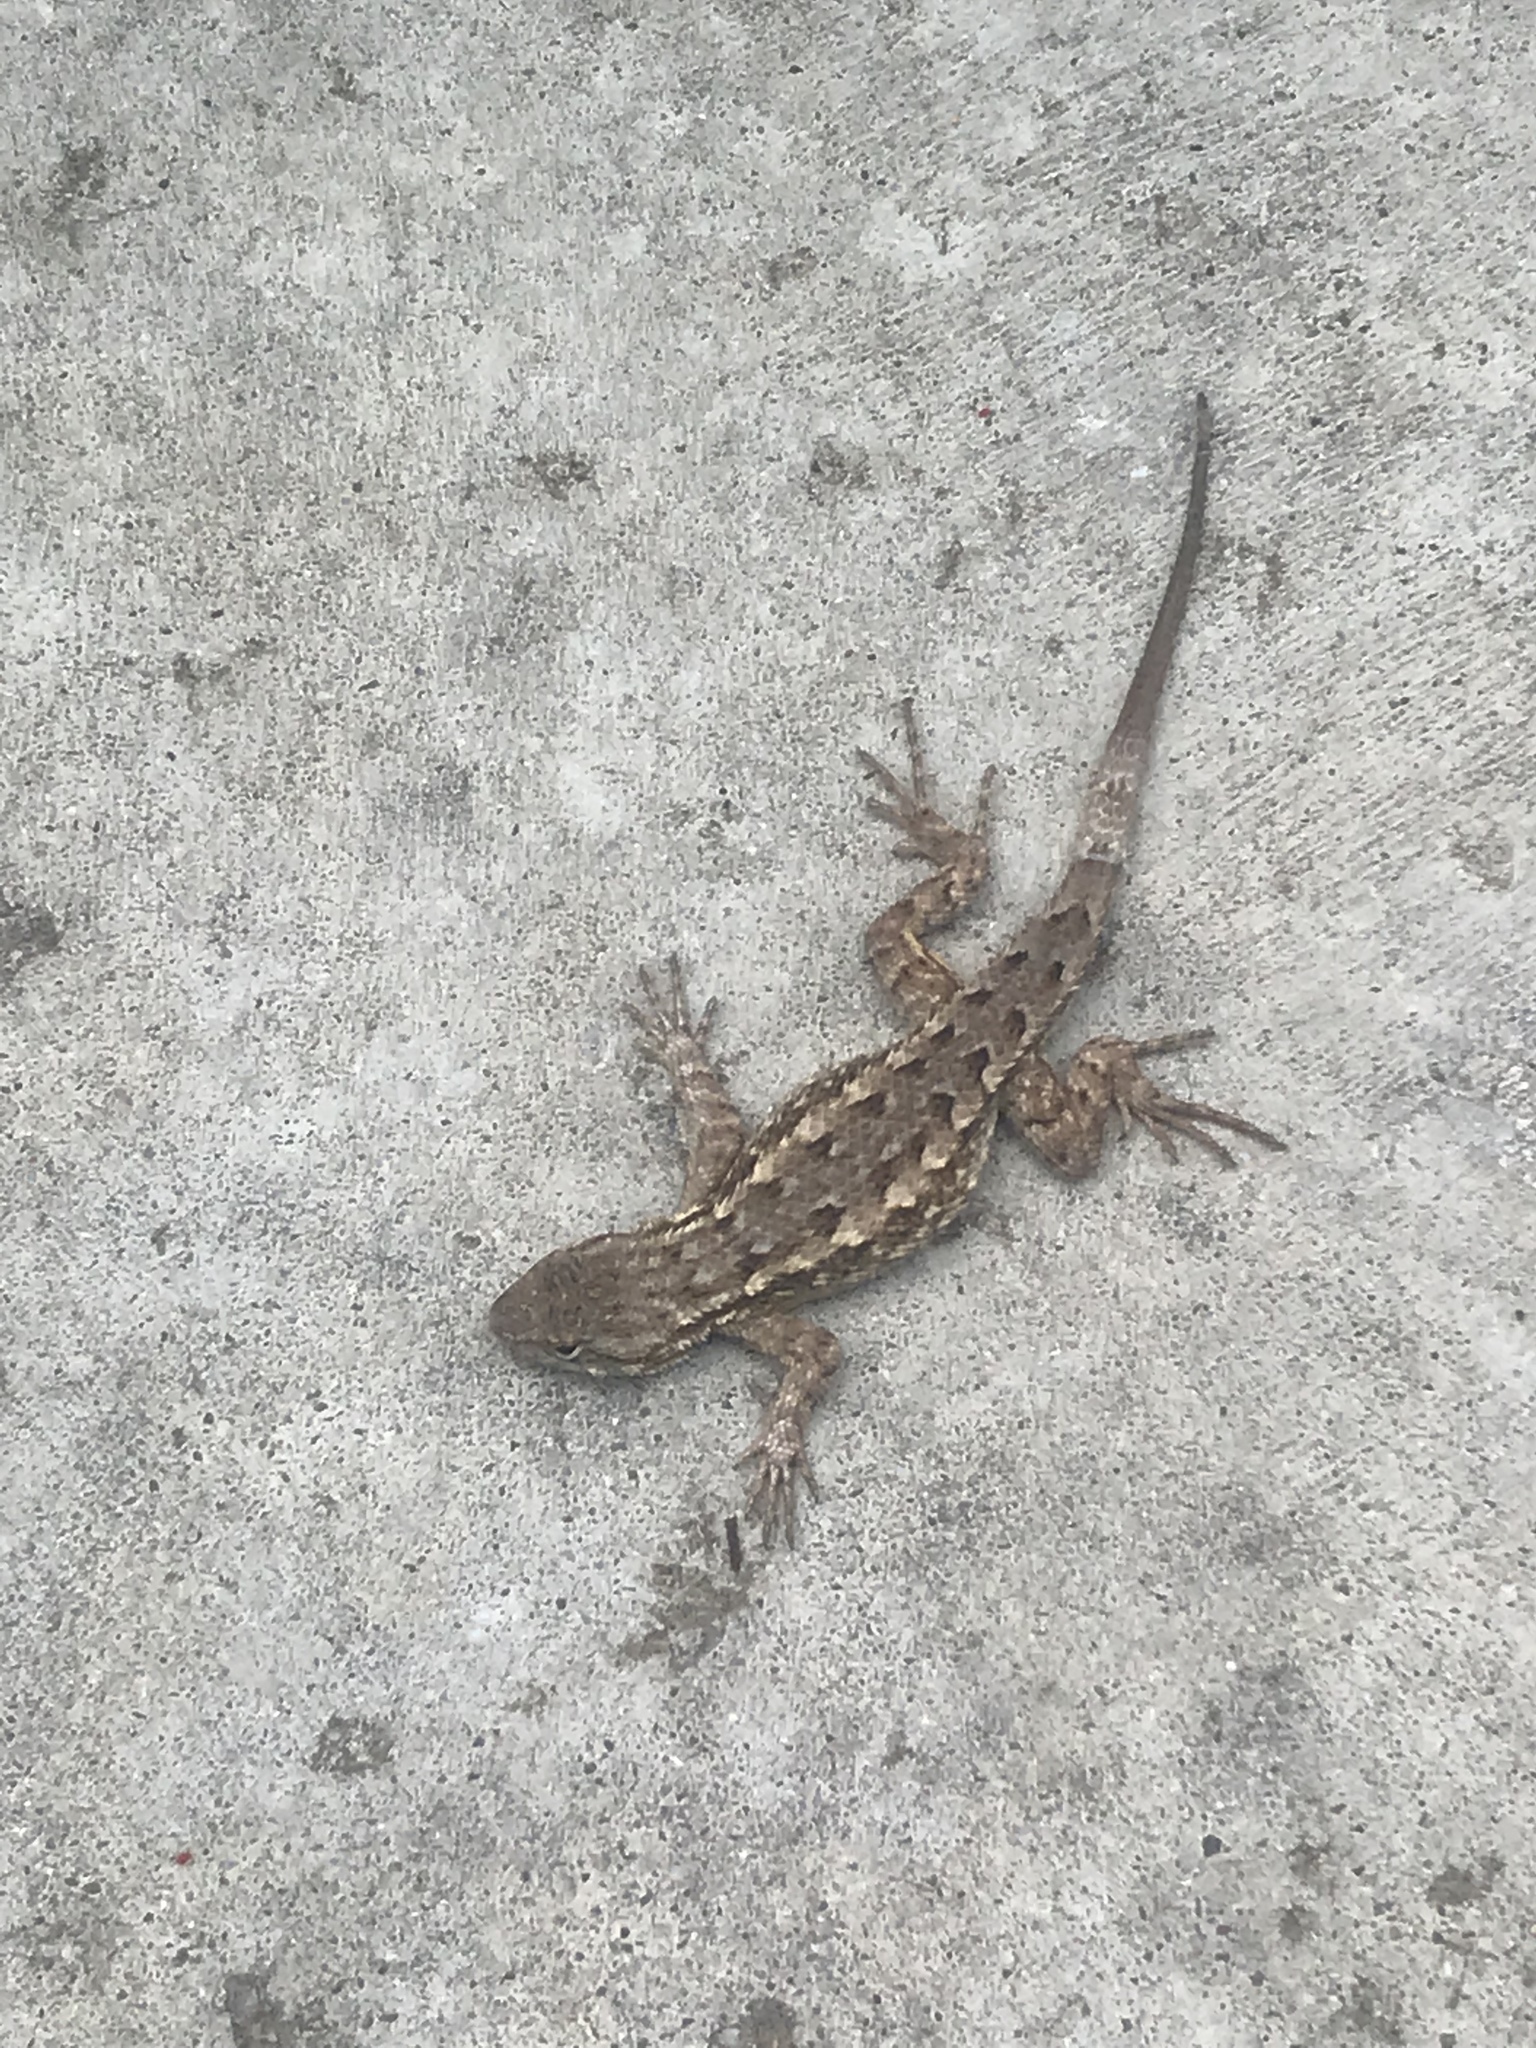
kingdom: Animalia
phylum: Chordata
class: Squamata
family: Phrynosomatidae
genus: Sceloporus
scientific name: Sceloporus occidentalis
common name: Western fence lizard
